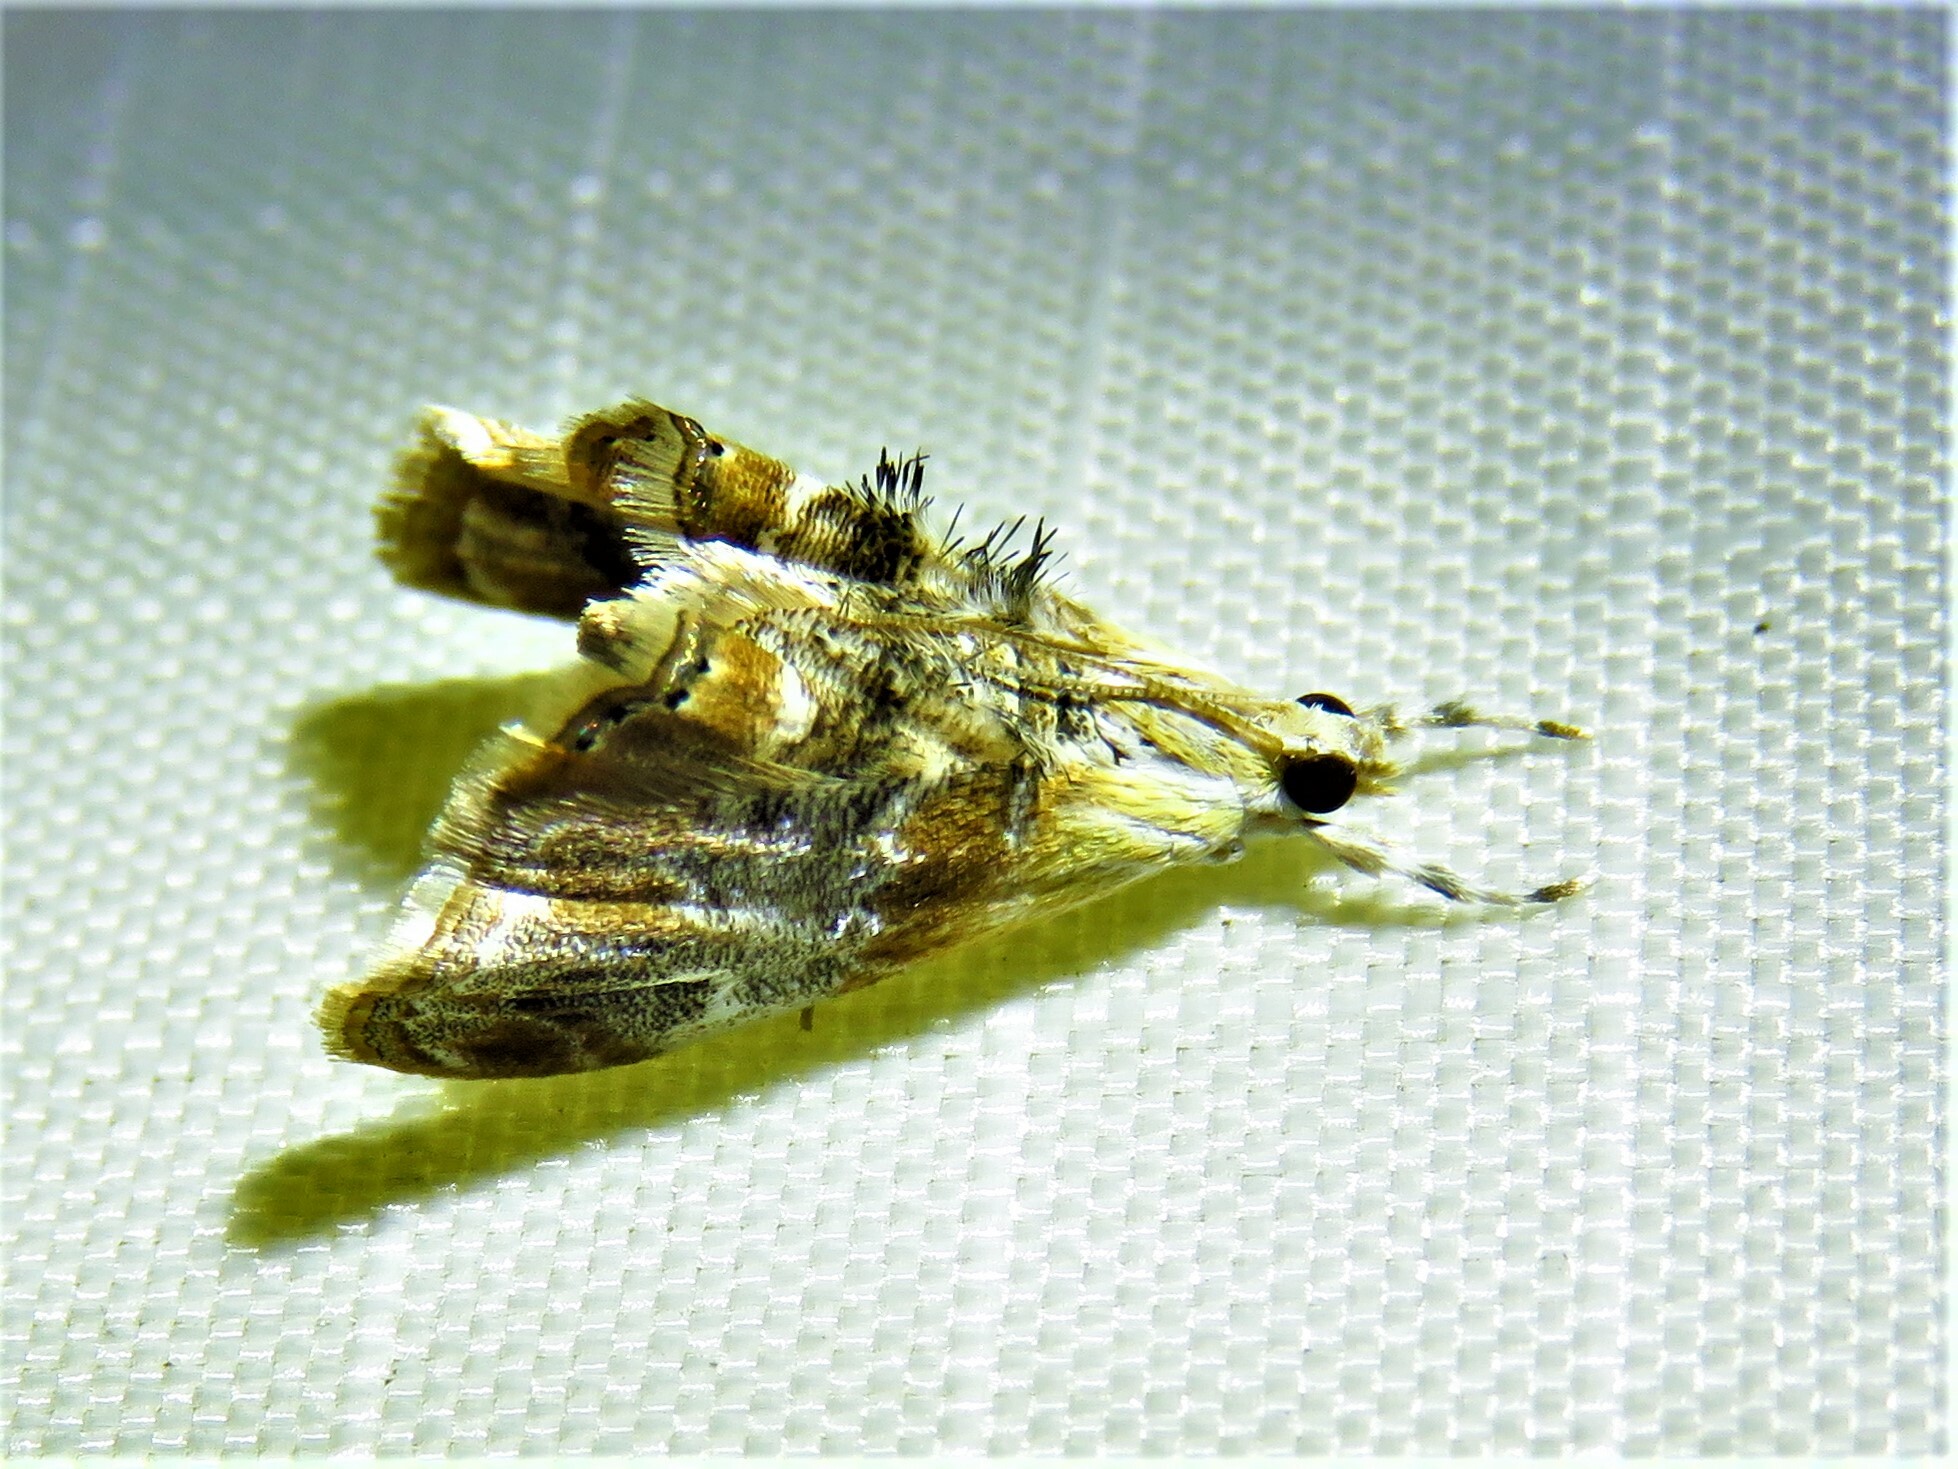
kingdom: Animalia
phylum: Arthropoda
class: Insecta
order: Lepidoptera
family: Crambidae
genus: Dicymolomia
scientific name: Dicymolomia julianalis
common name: Julia's dicymolomia moth
